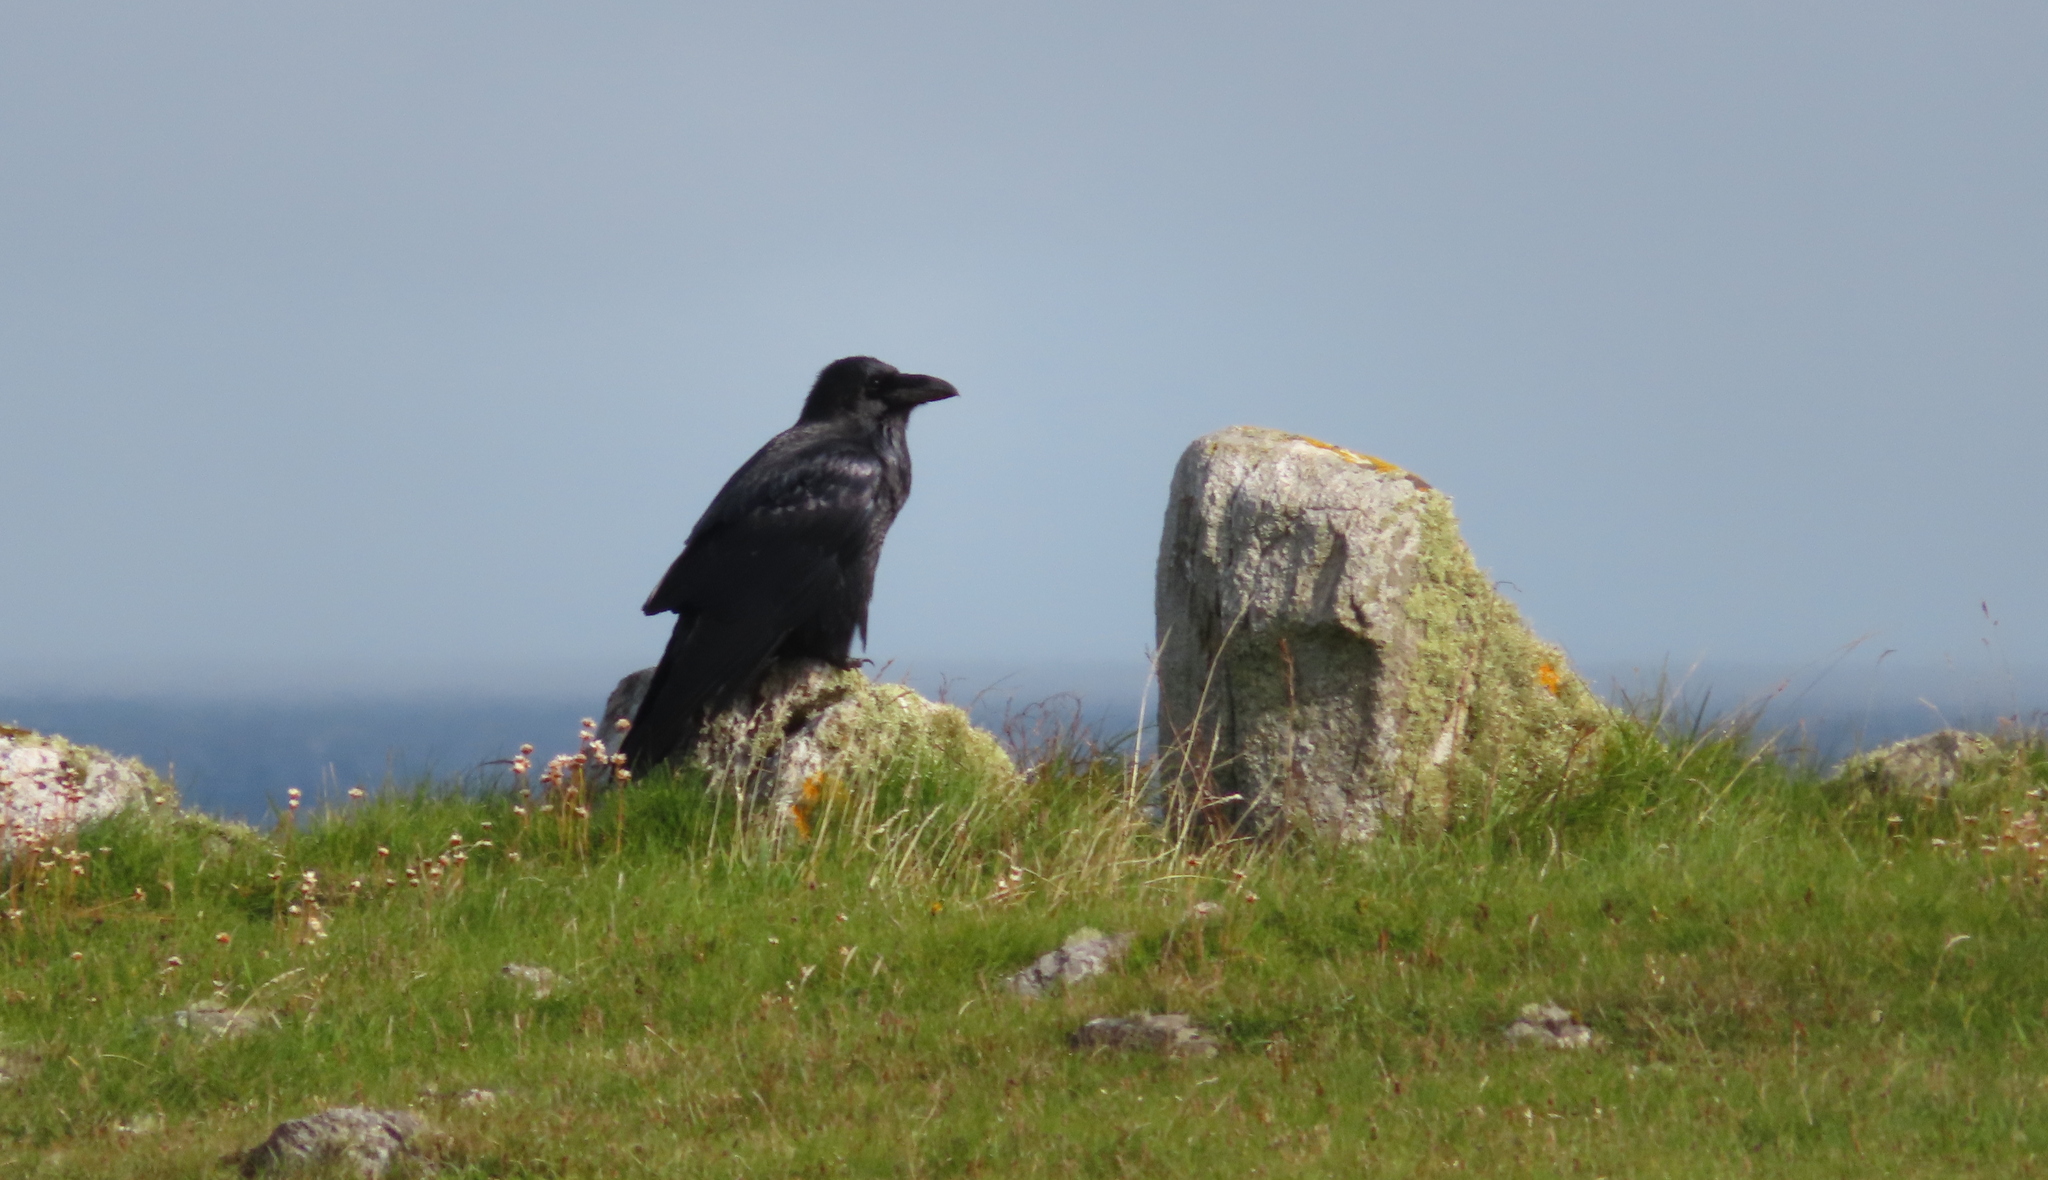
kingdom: Animalia
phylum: Chordata
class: Aves
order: Passeriformes
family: Corvidae
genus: Corvus
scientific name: Corvus corax
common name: Common raven
